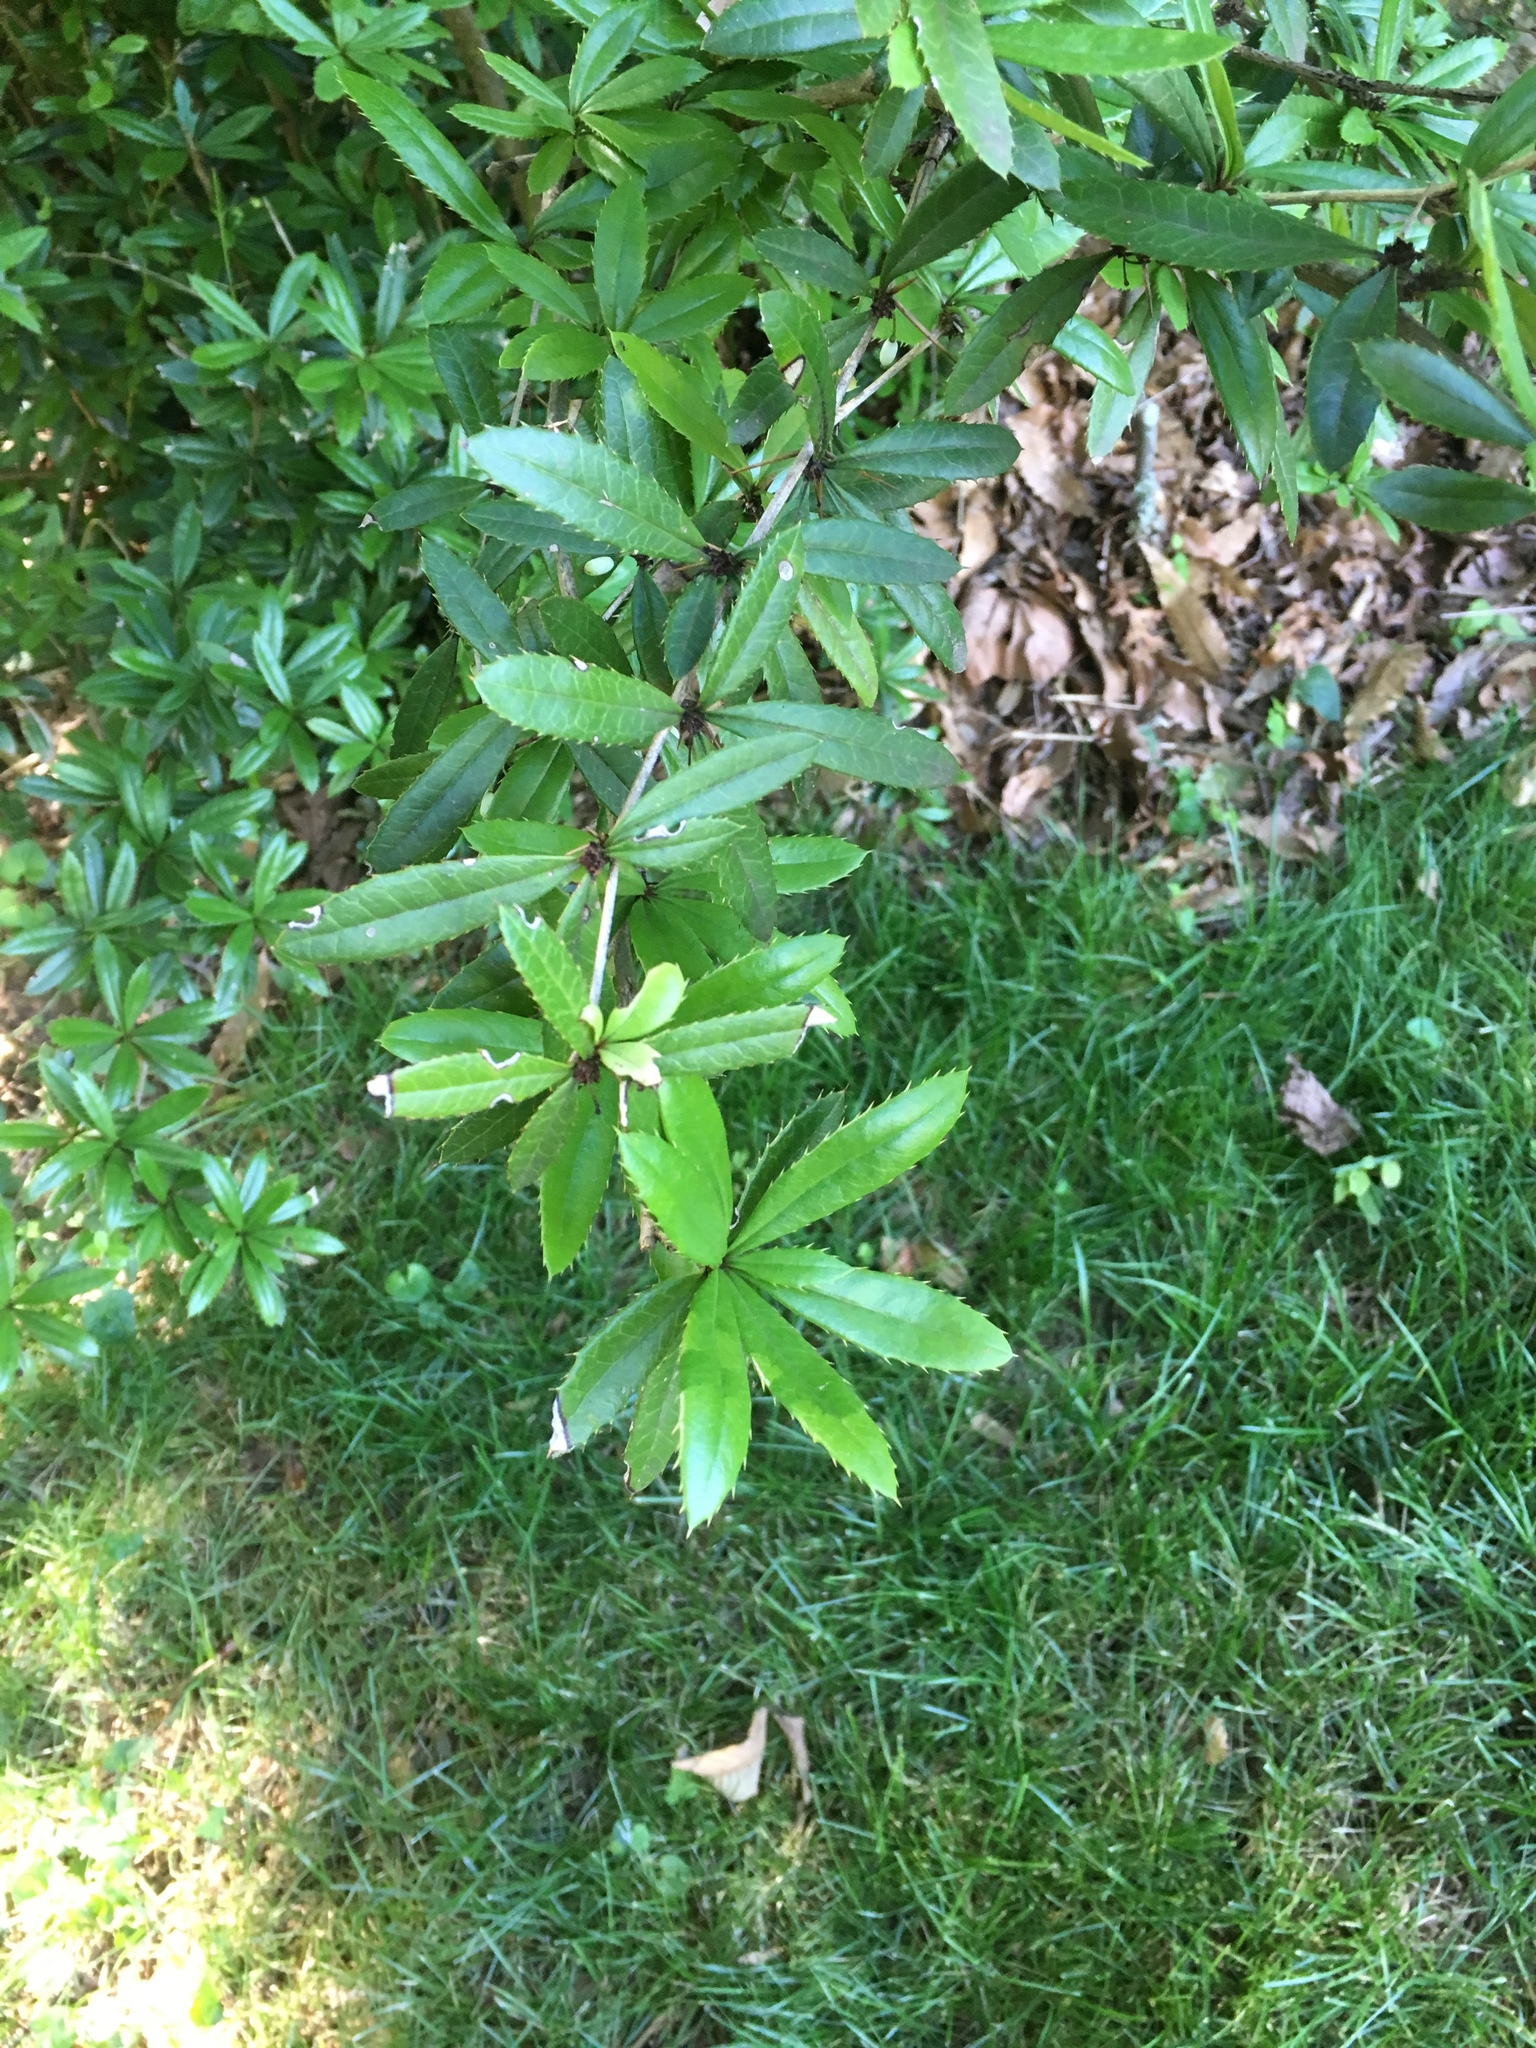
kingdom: Plantae
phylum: Tracheophyta
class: Magnoliopsida
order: Ranunculales
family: Berberidaceae
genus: Berberis
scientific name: Berberis julianae
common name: Wintergreen barberry
